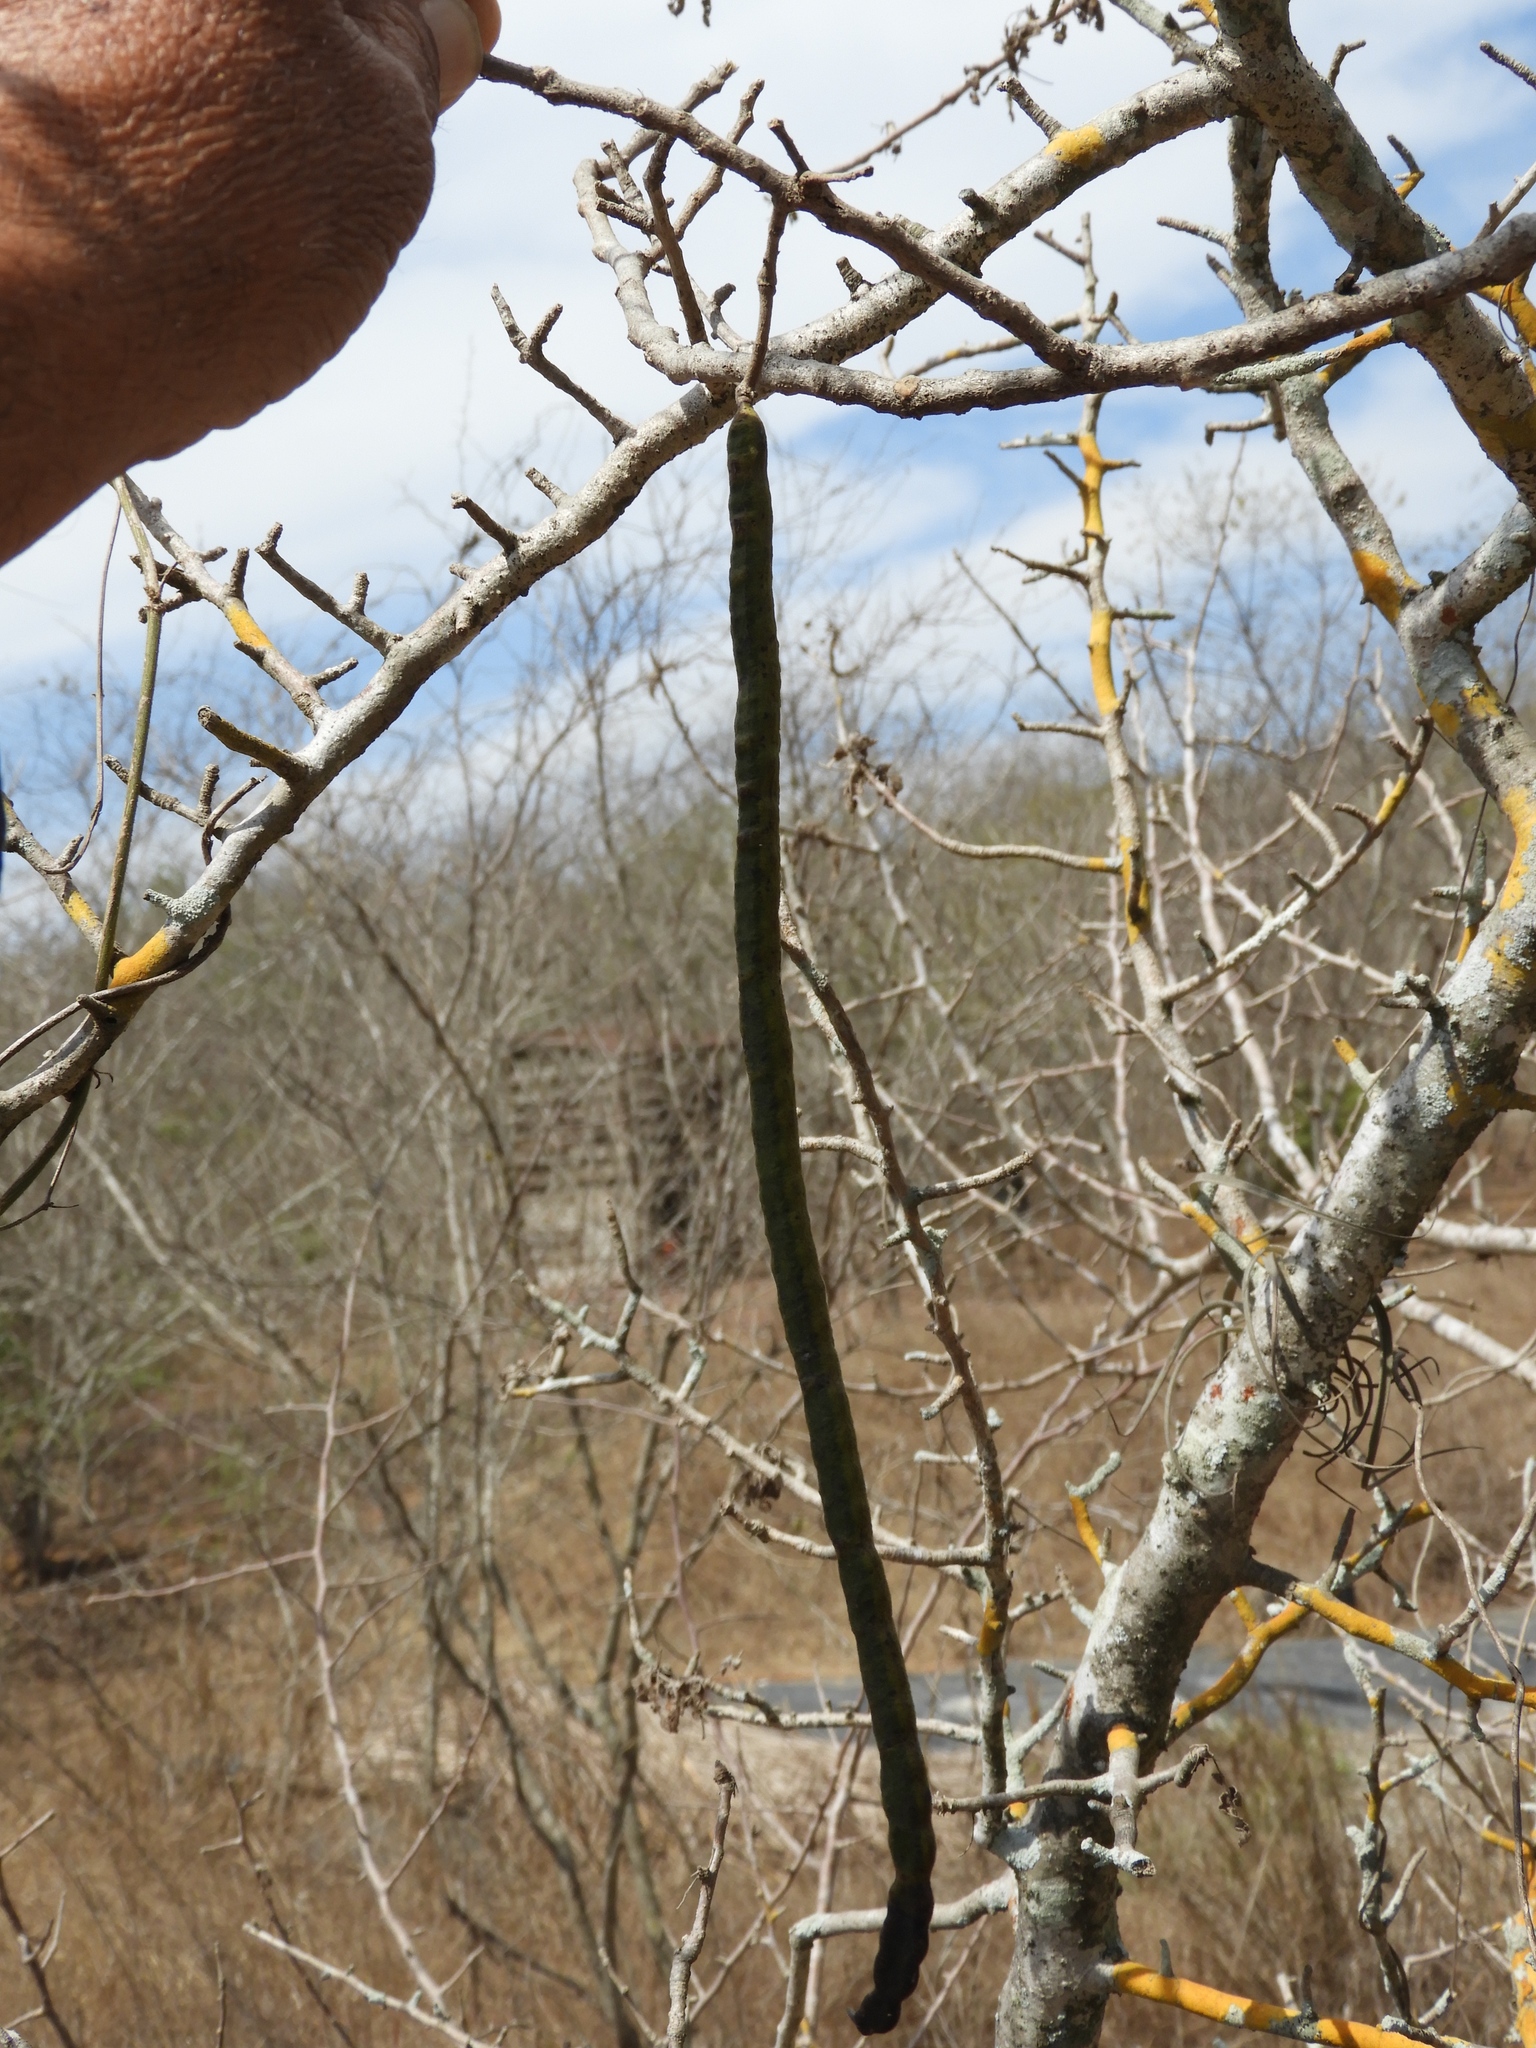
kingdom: Plantae
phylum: Tracheophyta
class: Magnoliopsida
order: Fabales
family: Fabaceae
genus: Senna
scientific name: Senna atomaria
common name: Flor de san jose
